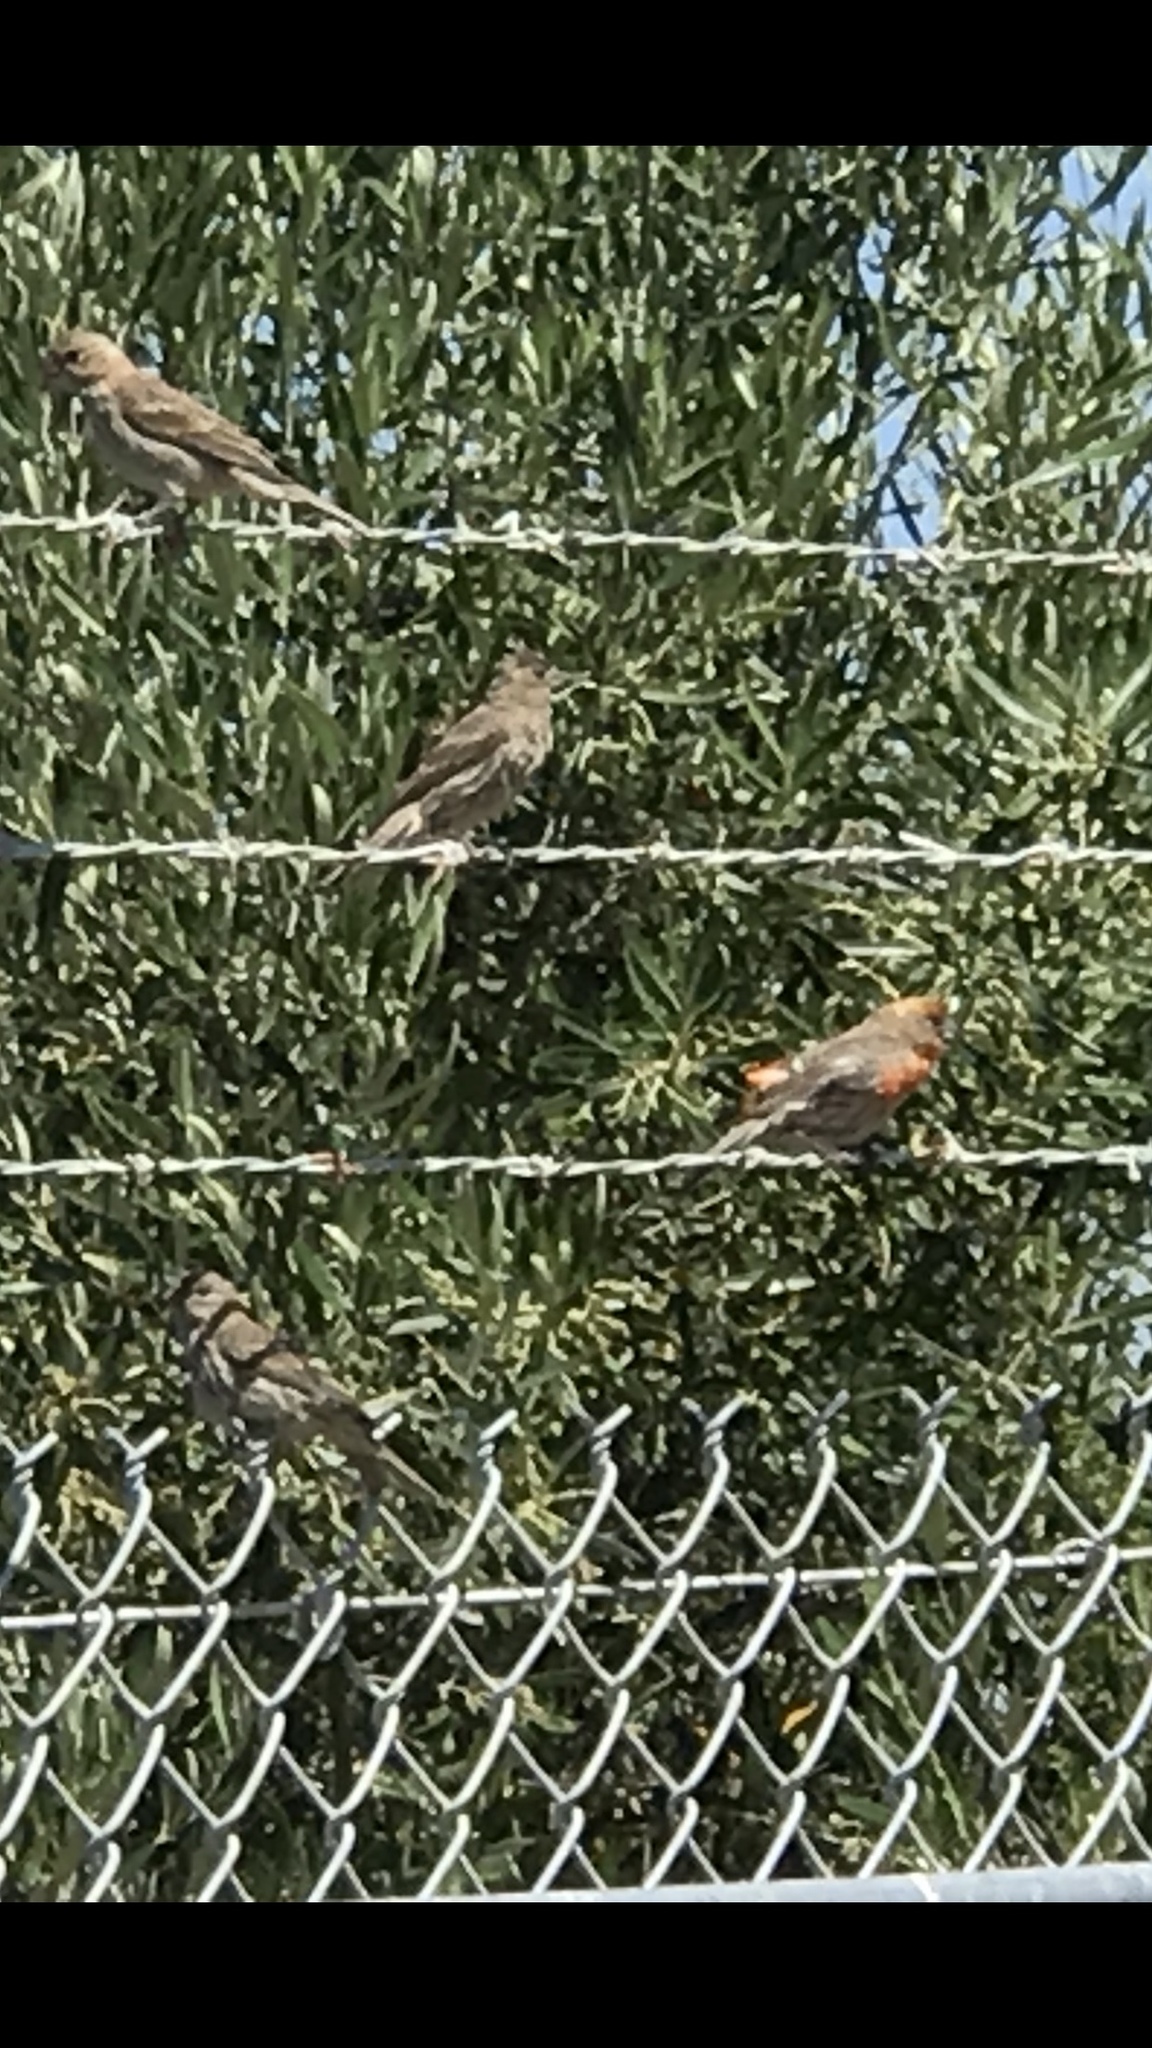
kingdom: Animalia
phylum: Chordata
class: Aves
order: Passeriformes
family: Fringillidae
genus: Haemorhous
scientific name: Haemorhous mexicanus
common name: House finch
